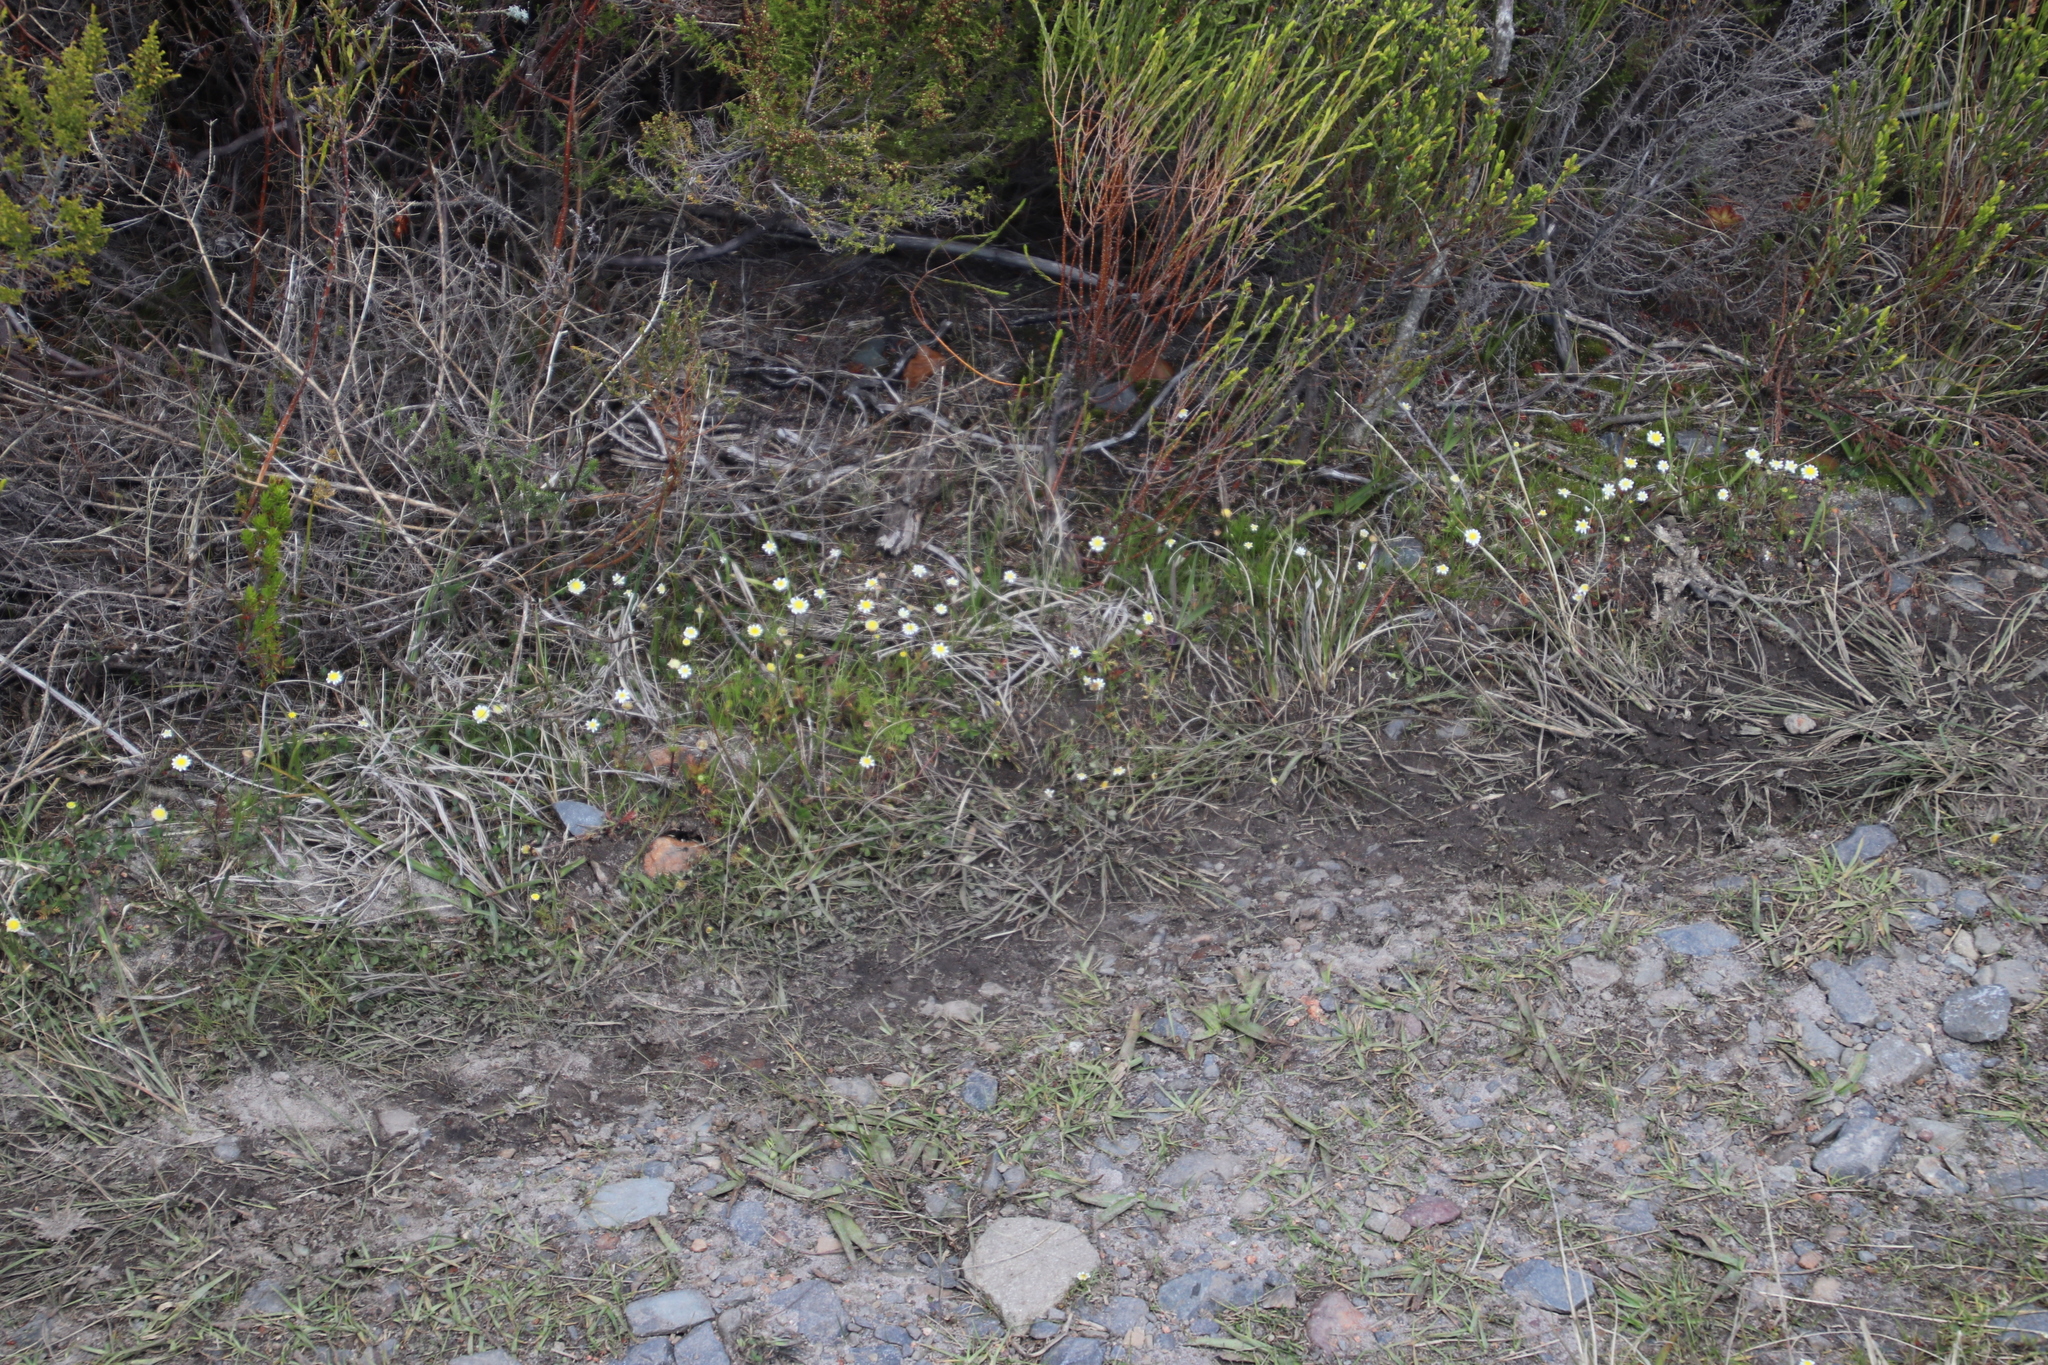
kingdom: Plantae
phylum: Tracheophyta
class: Magnoliopsida
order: Asterales
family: Asteraceae
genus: Cotula
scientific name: Cotula turbinata
